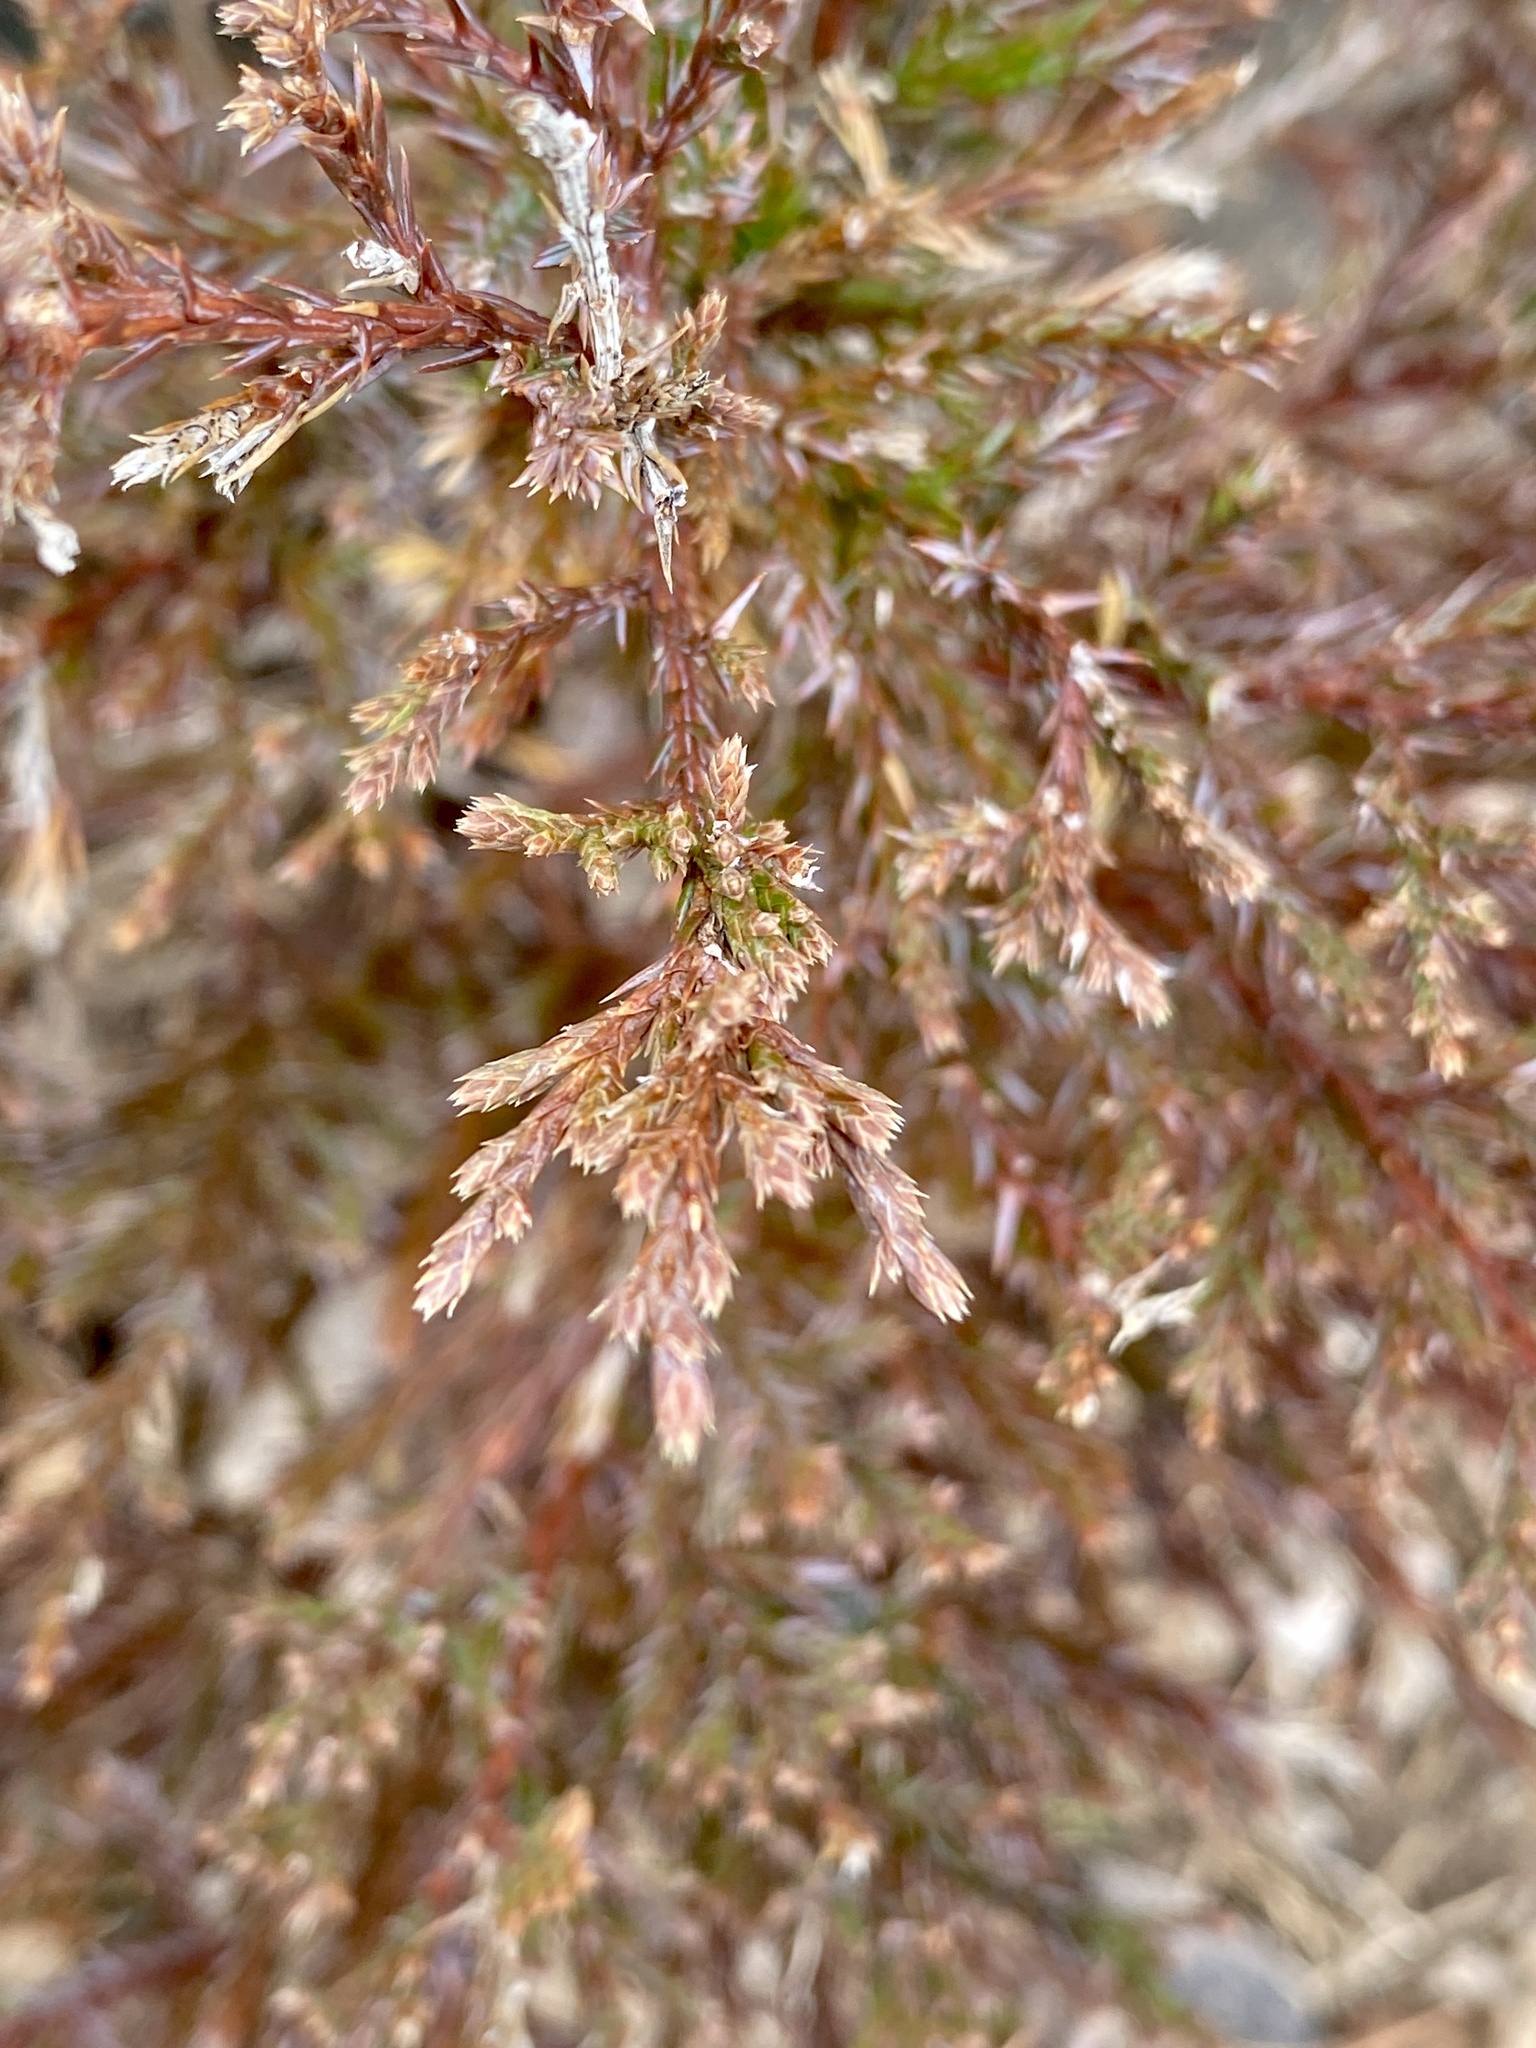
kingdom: Plantae
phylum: Tracheophyta
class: Pinopsida
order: Pinales
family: Cupressaceae
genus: Juniperus
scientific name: Juniperus virginiana
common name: Red juniper
